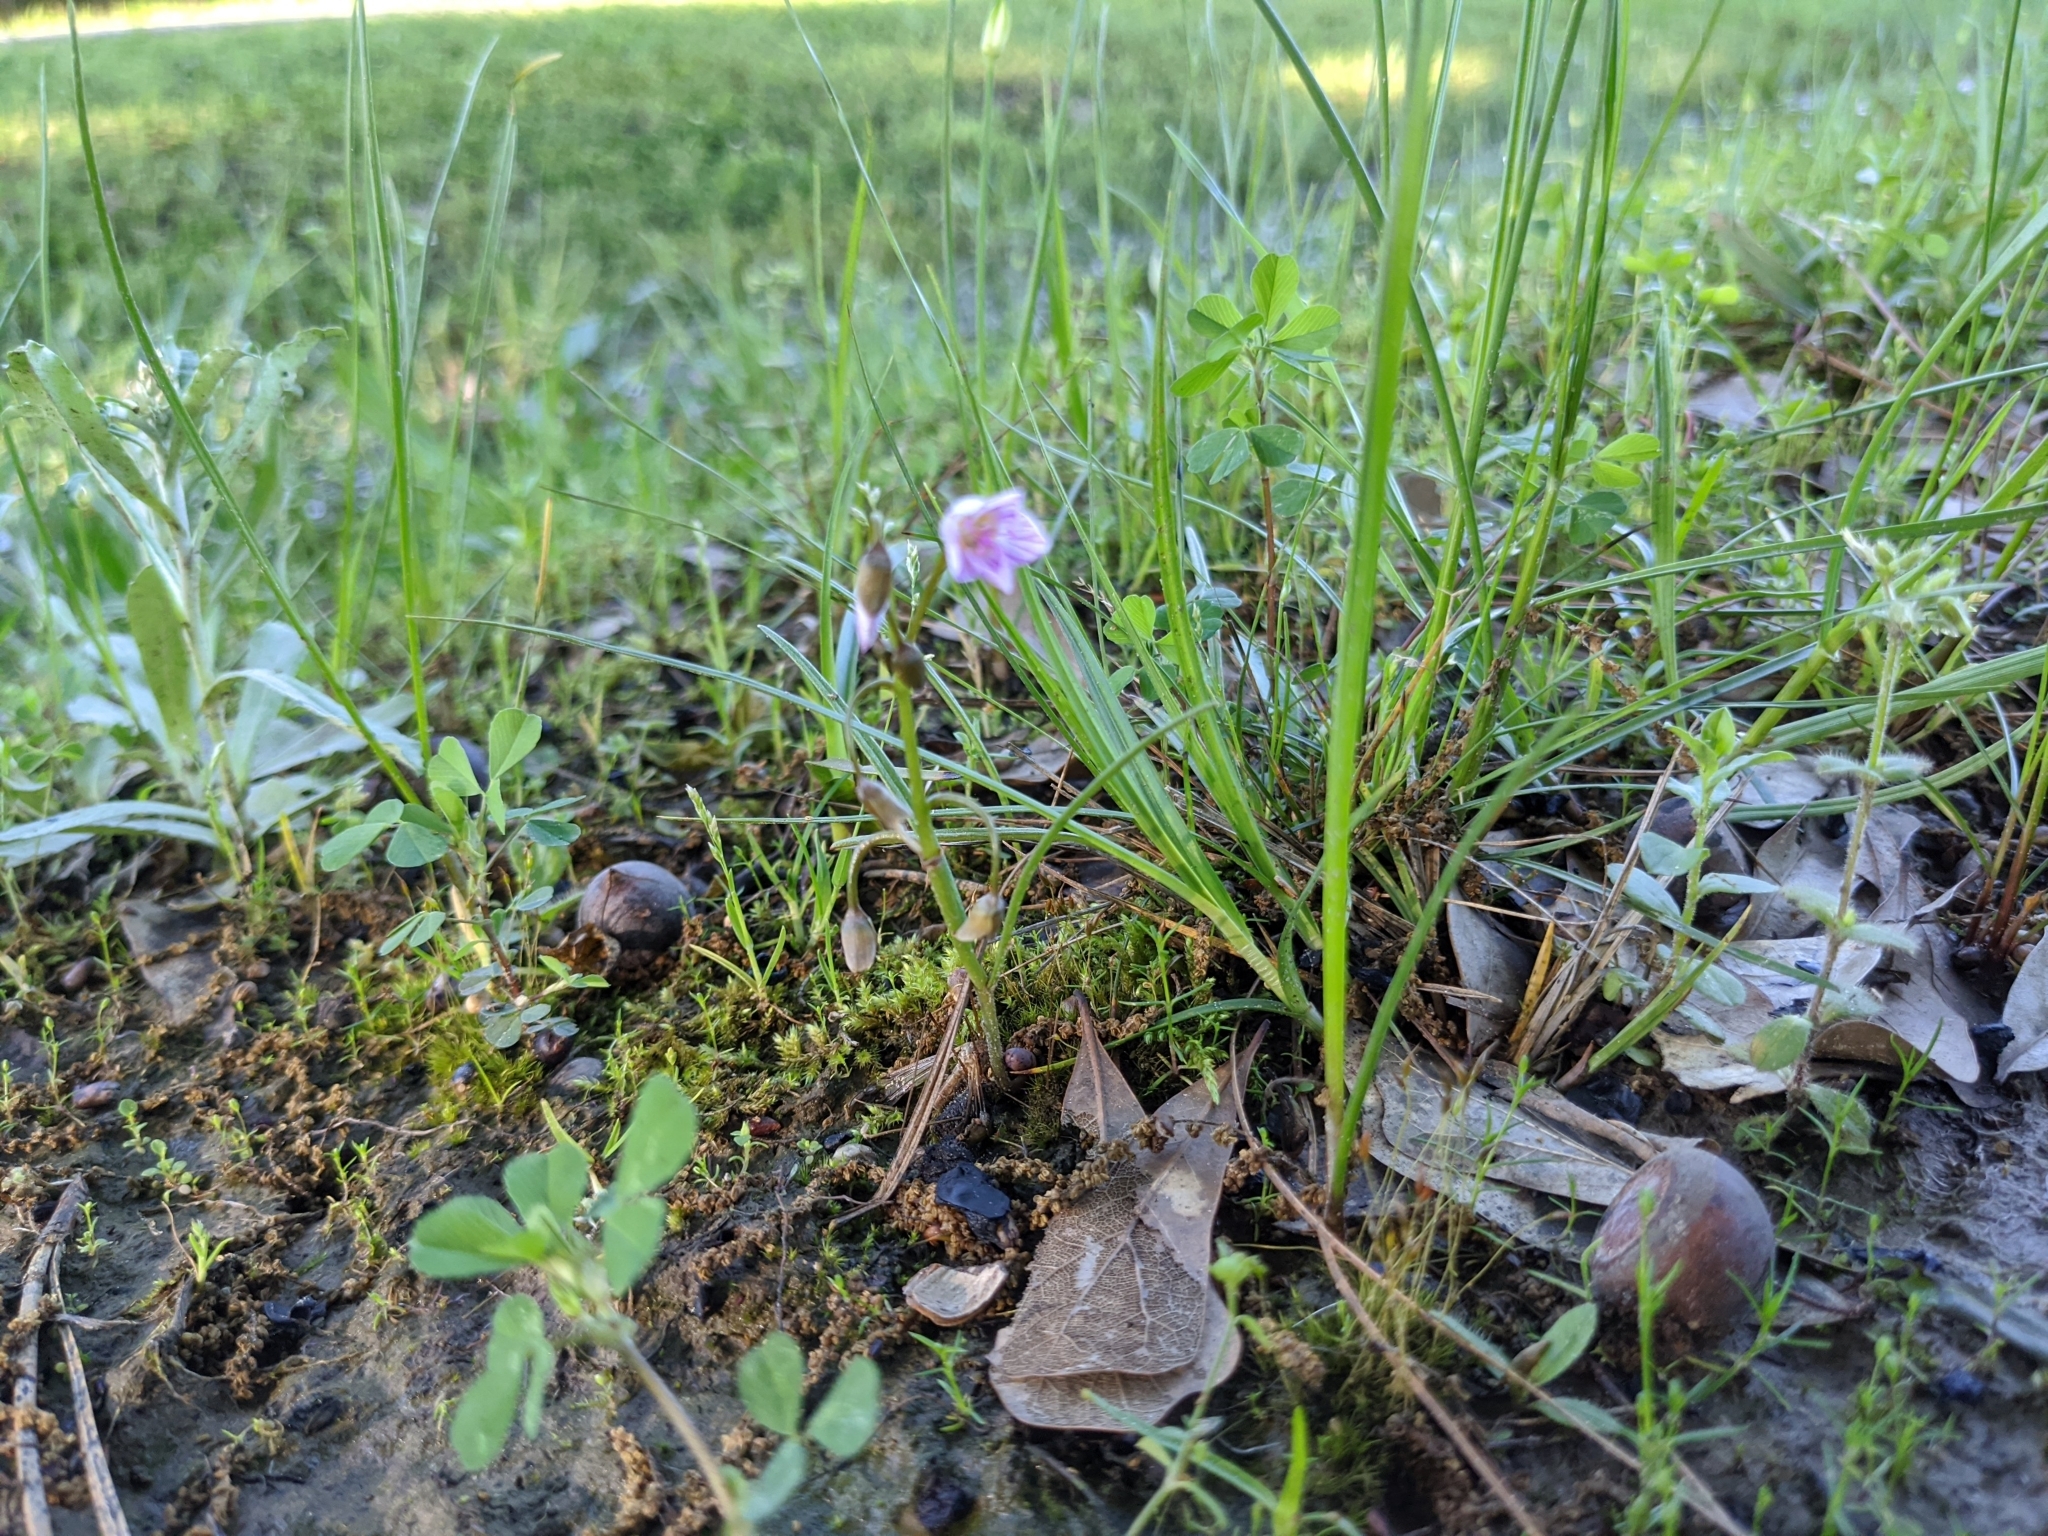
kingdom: Plantae
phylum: Tracheophyta
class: Magnoliopsida
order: Caryophyllales
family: Montiaceae
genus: Claytonia
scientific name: Claytonia virginica
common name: Virginia springbeauty
